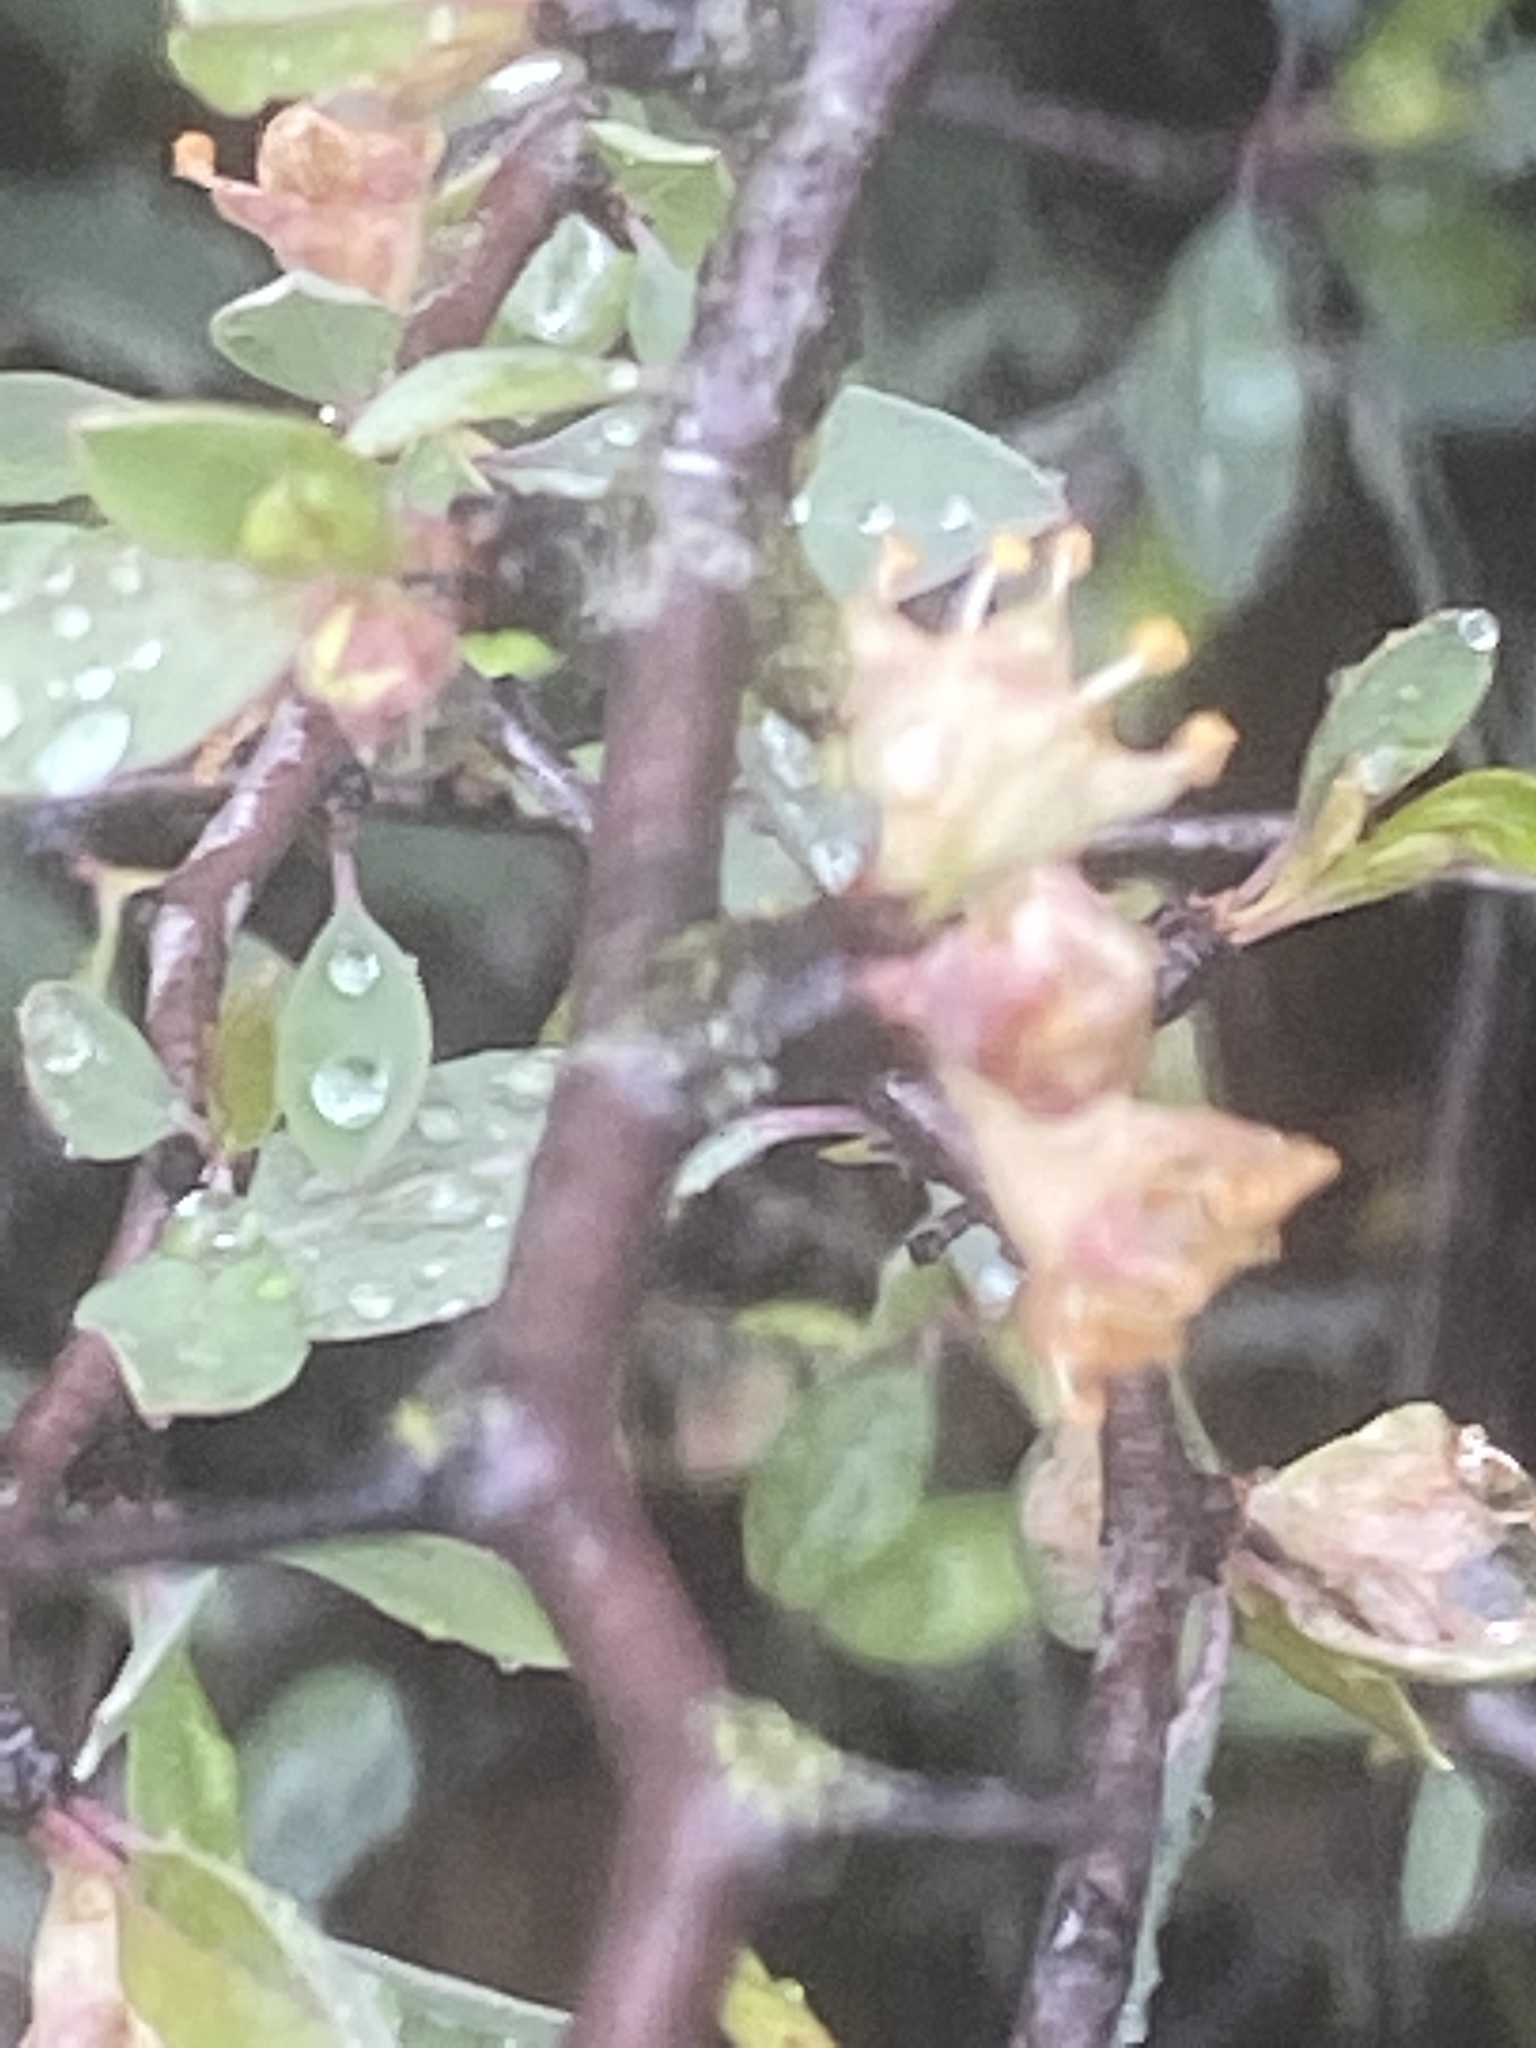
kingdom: Plantae
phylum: Tracheophyta
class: Magnoliopsida
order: Rosales
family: Rosaceae
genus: Prunus
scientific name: Prunus minutiflora
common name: Texas almond
